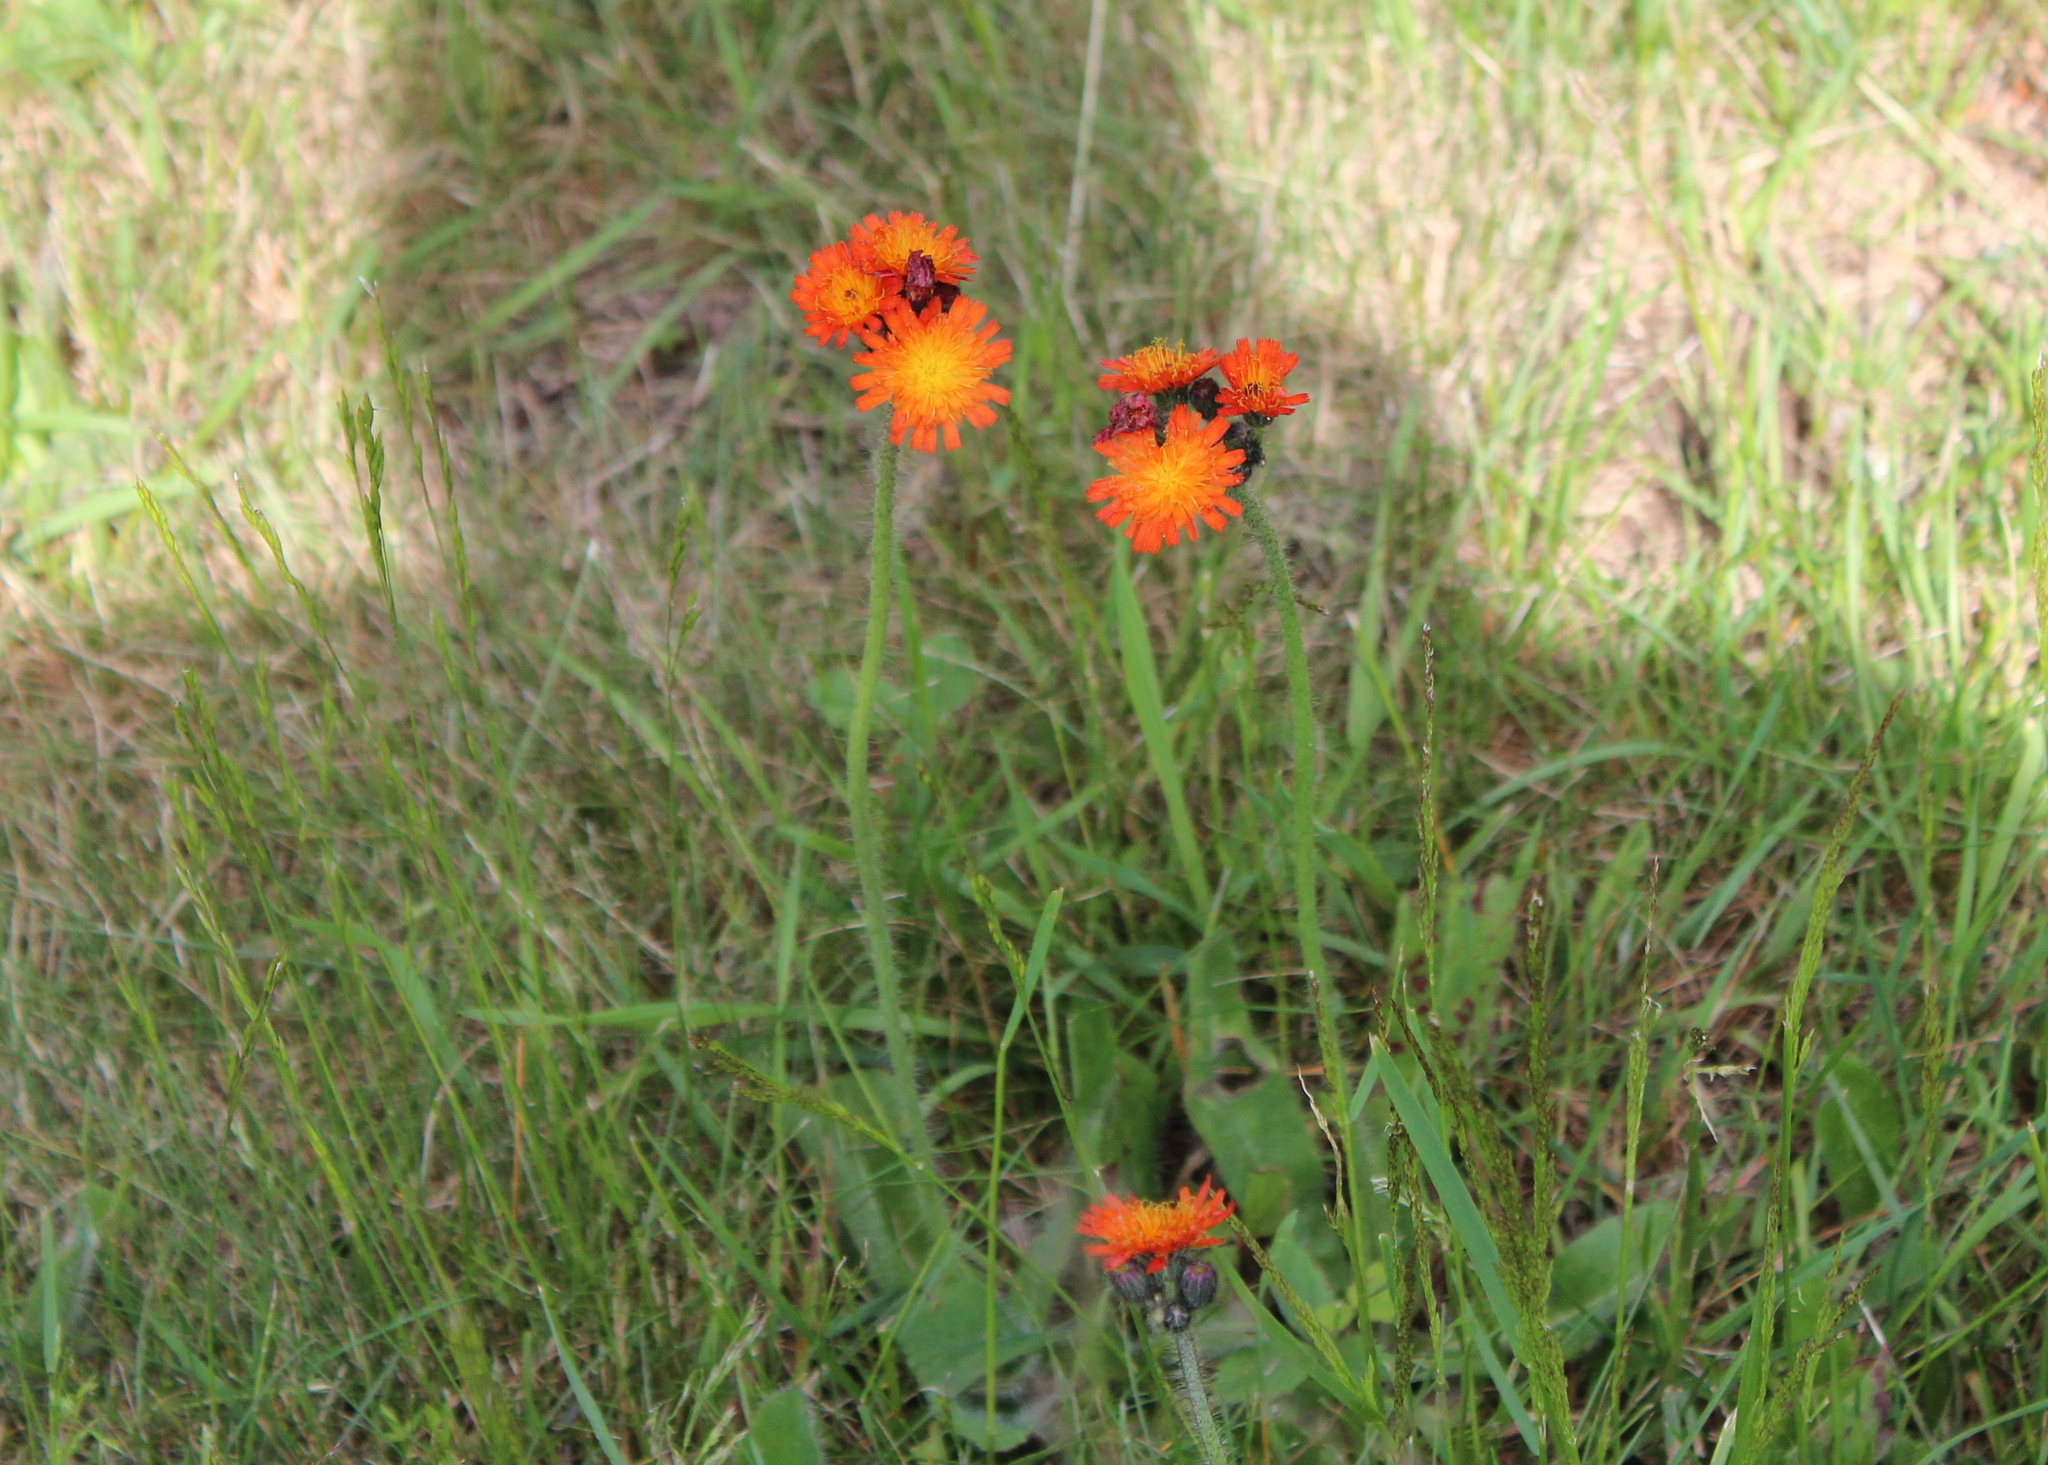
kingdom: Plantae
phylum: Tracheophyta
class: Magnoliopsida
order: Asterales
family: Asteraceae
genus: Pilosella
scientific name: Pilosella aurantiaca
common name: Fox-and-cubs
